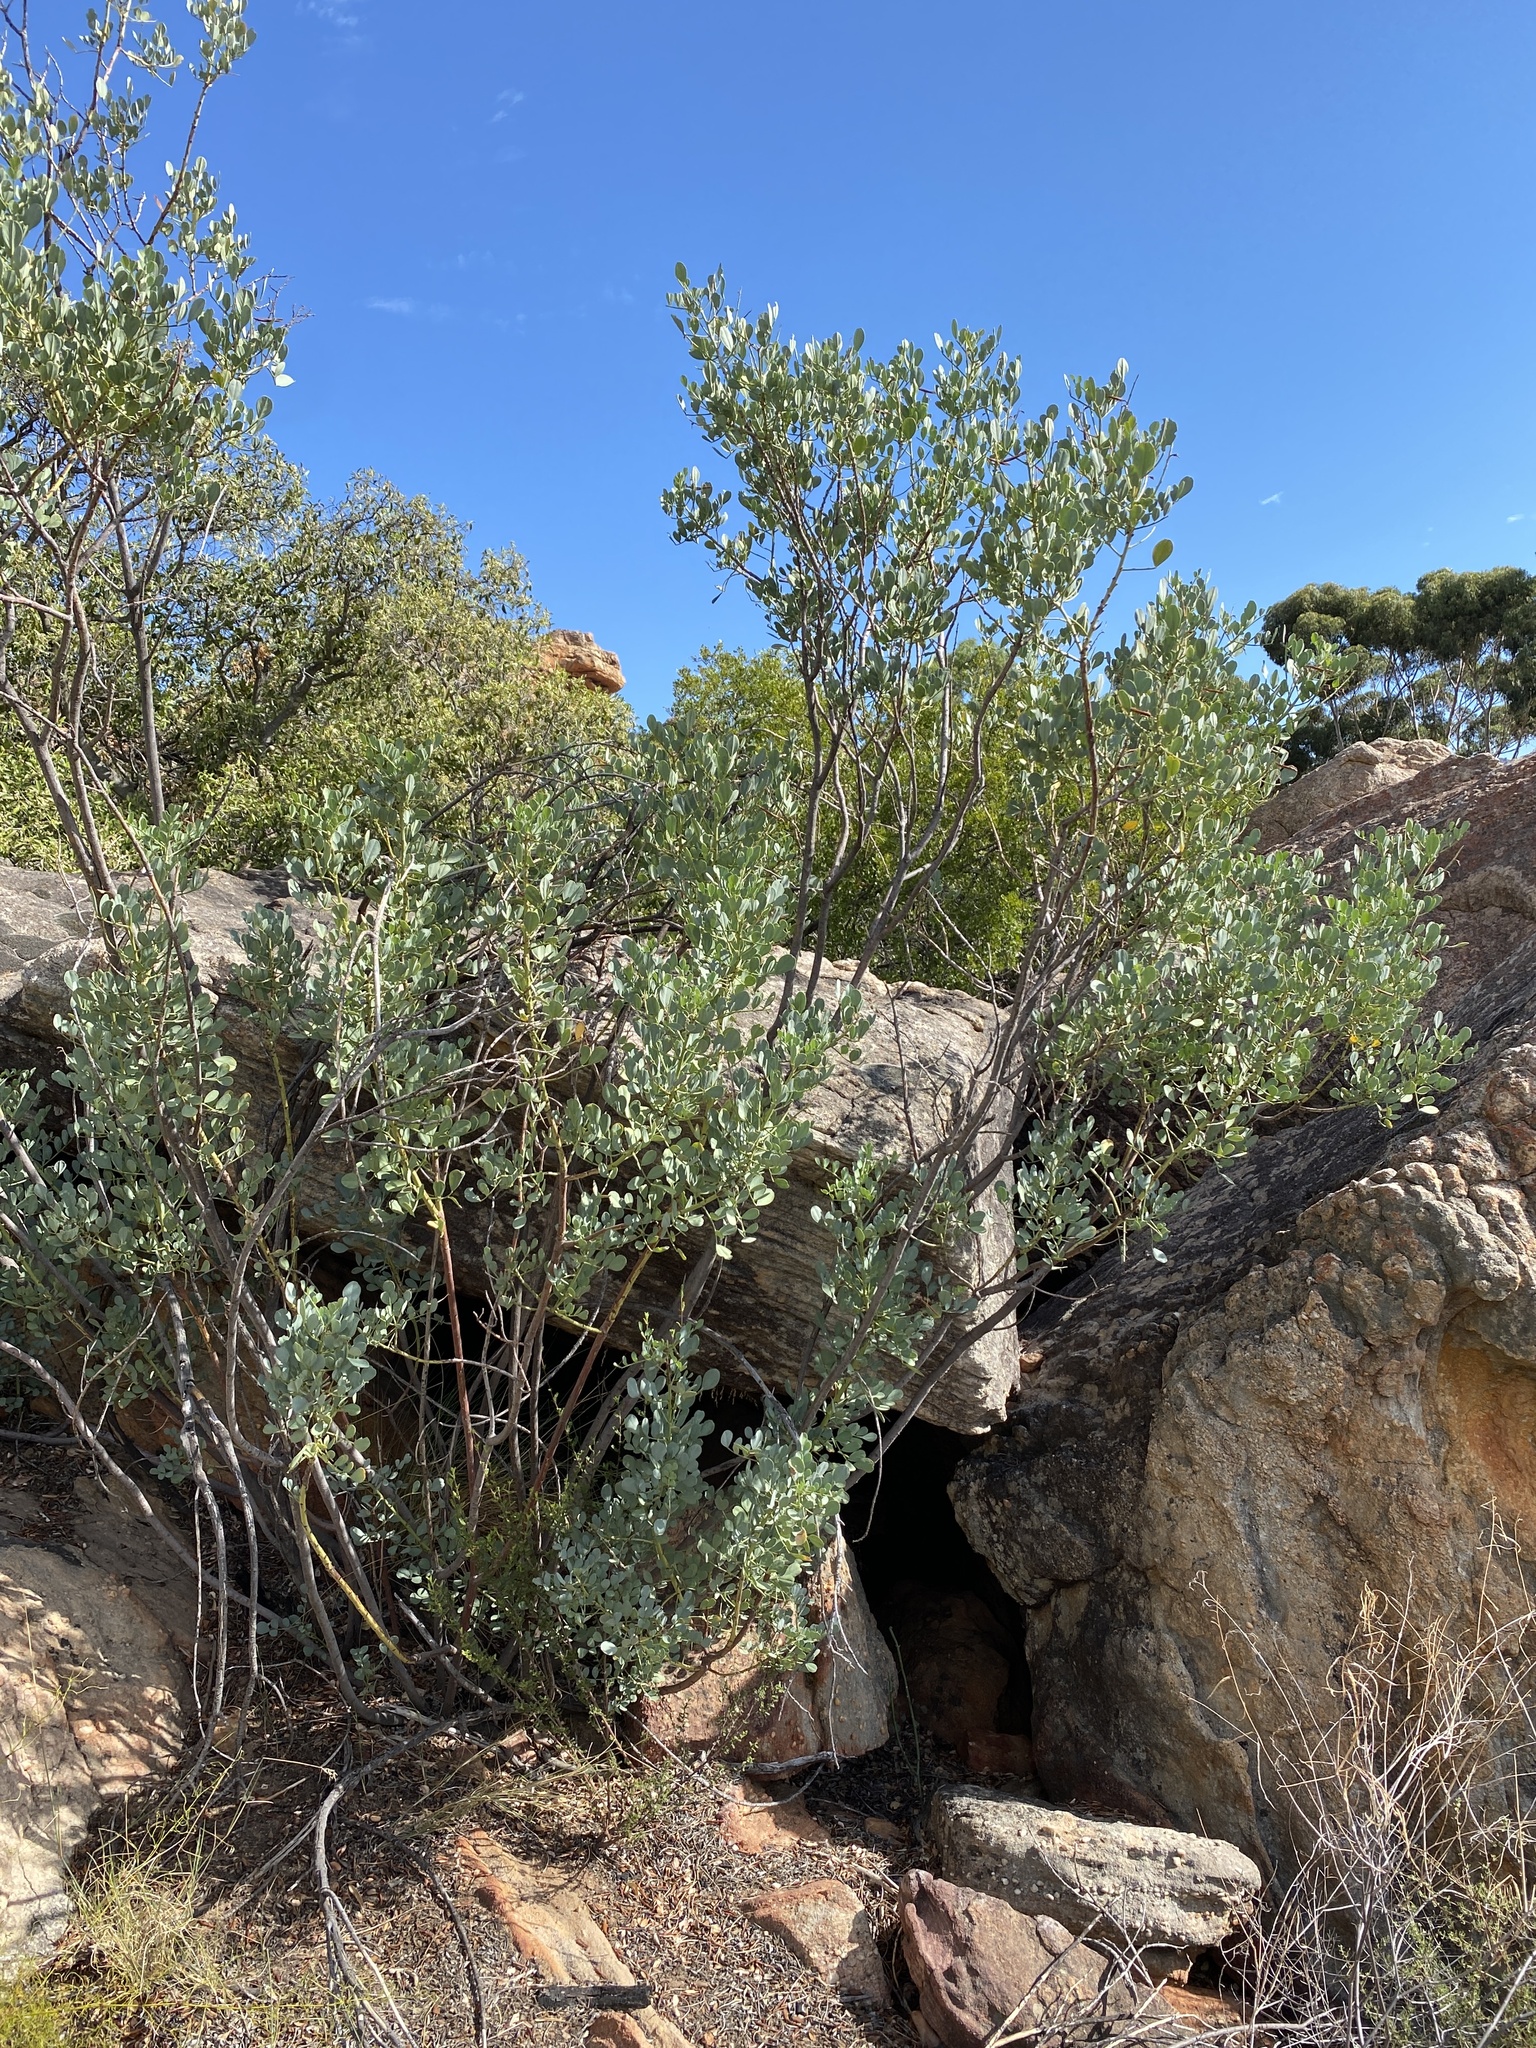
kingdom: Plantae
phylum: Tracheophyta
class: Magnoliopsida
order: Fabales
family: Fabaceae
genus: Indigofera
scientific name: Indigofera frutescens
